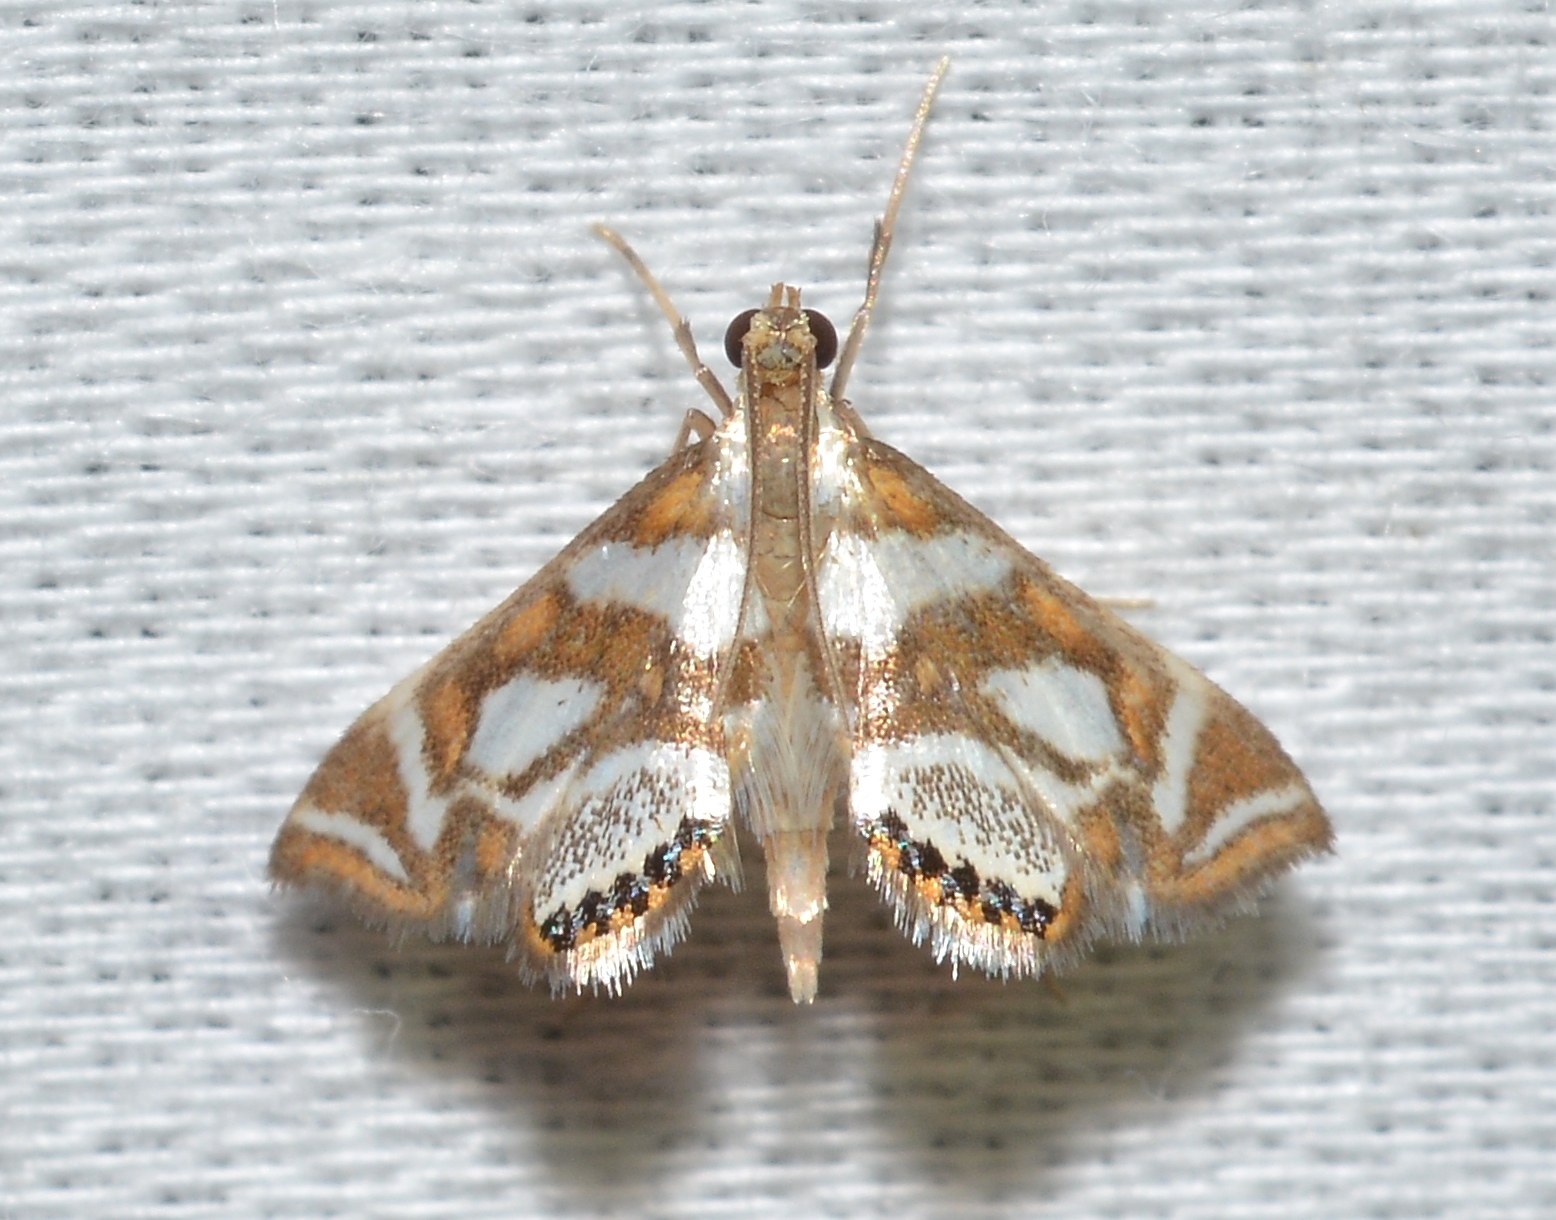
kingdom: Animalia
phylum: Arthropoda
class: Insecta
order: Lepidoptera
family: Crambidae
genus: Chrysendeton
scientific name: Chrysendeton medicinalis
